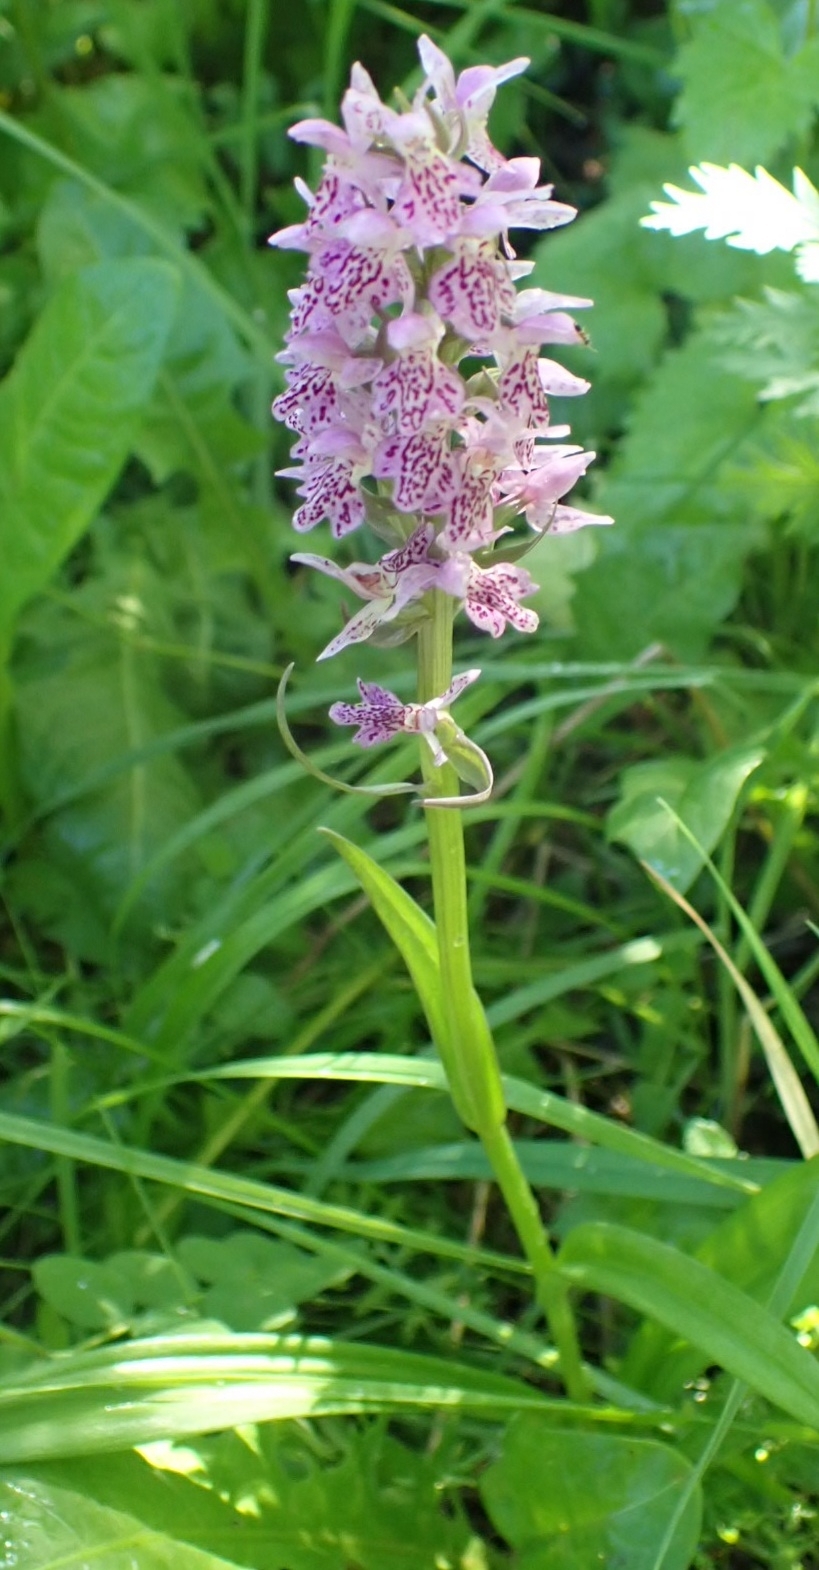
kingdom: Plantae
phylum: Tracheophyta
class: Liliopsida
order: Asparagales
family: Orchidaceae
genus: Dactylorhiza
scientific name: Dactylorhiza sibirica
